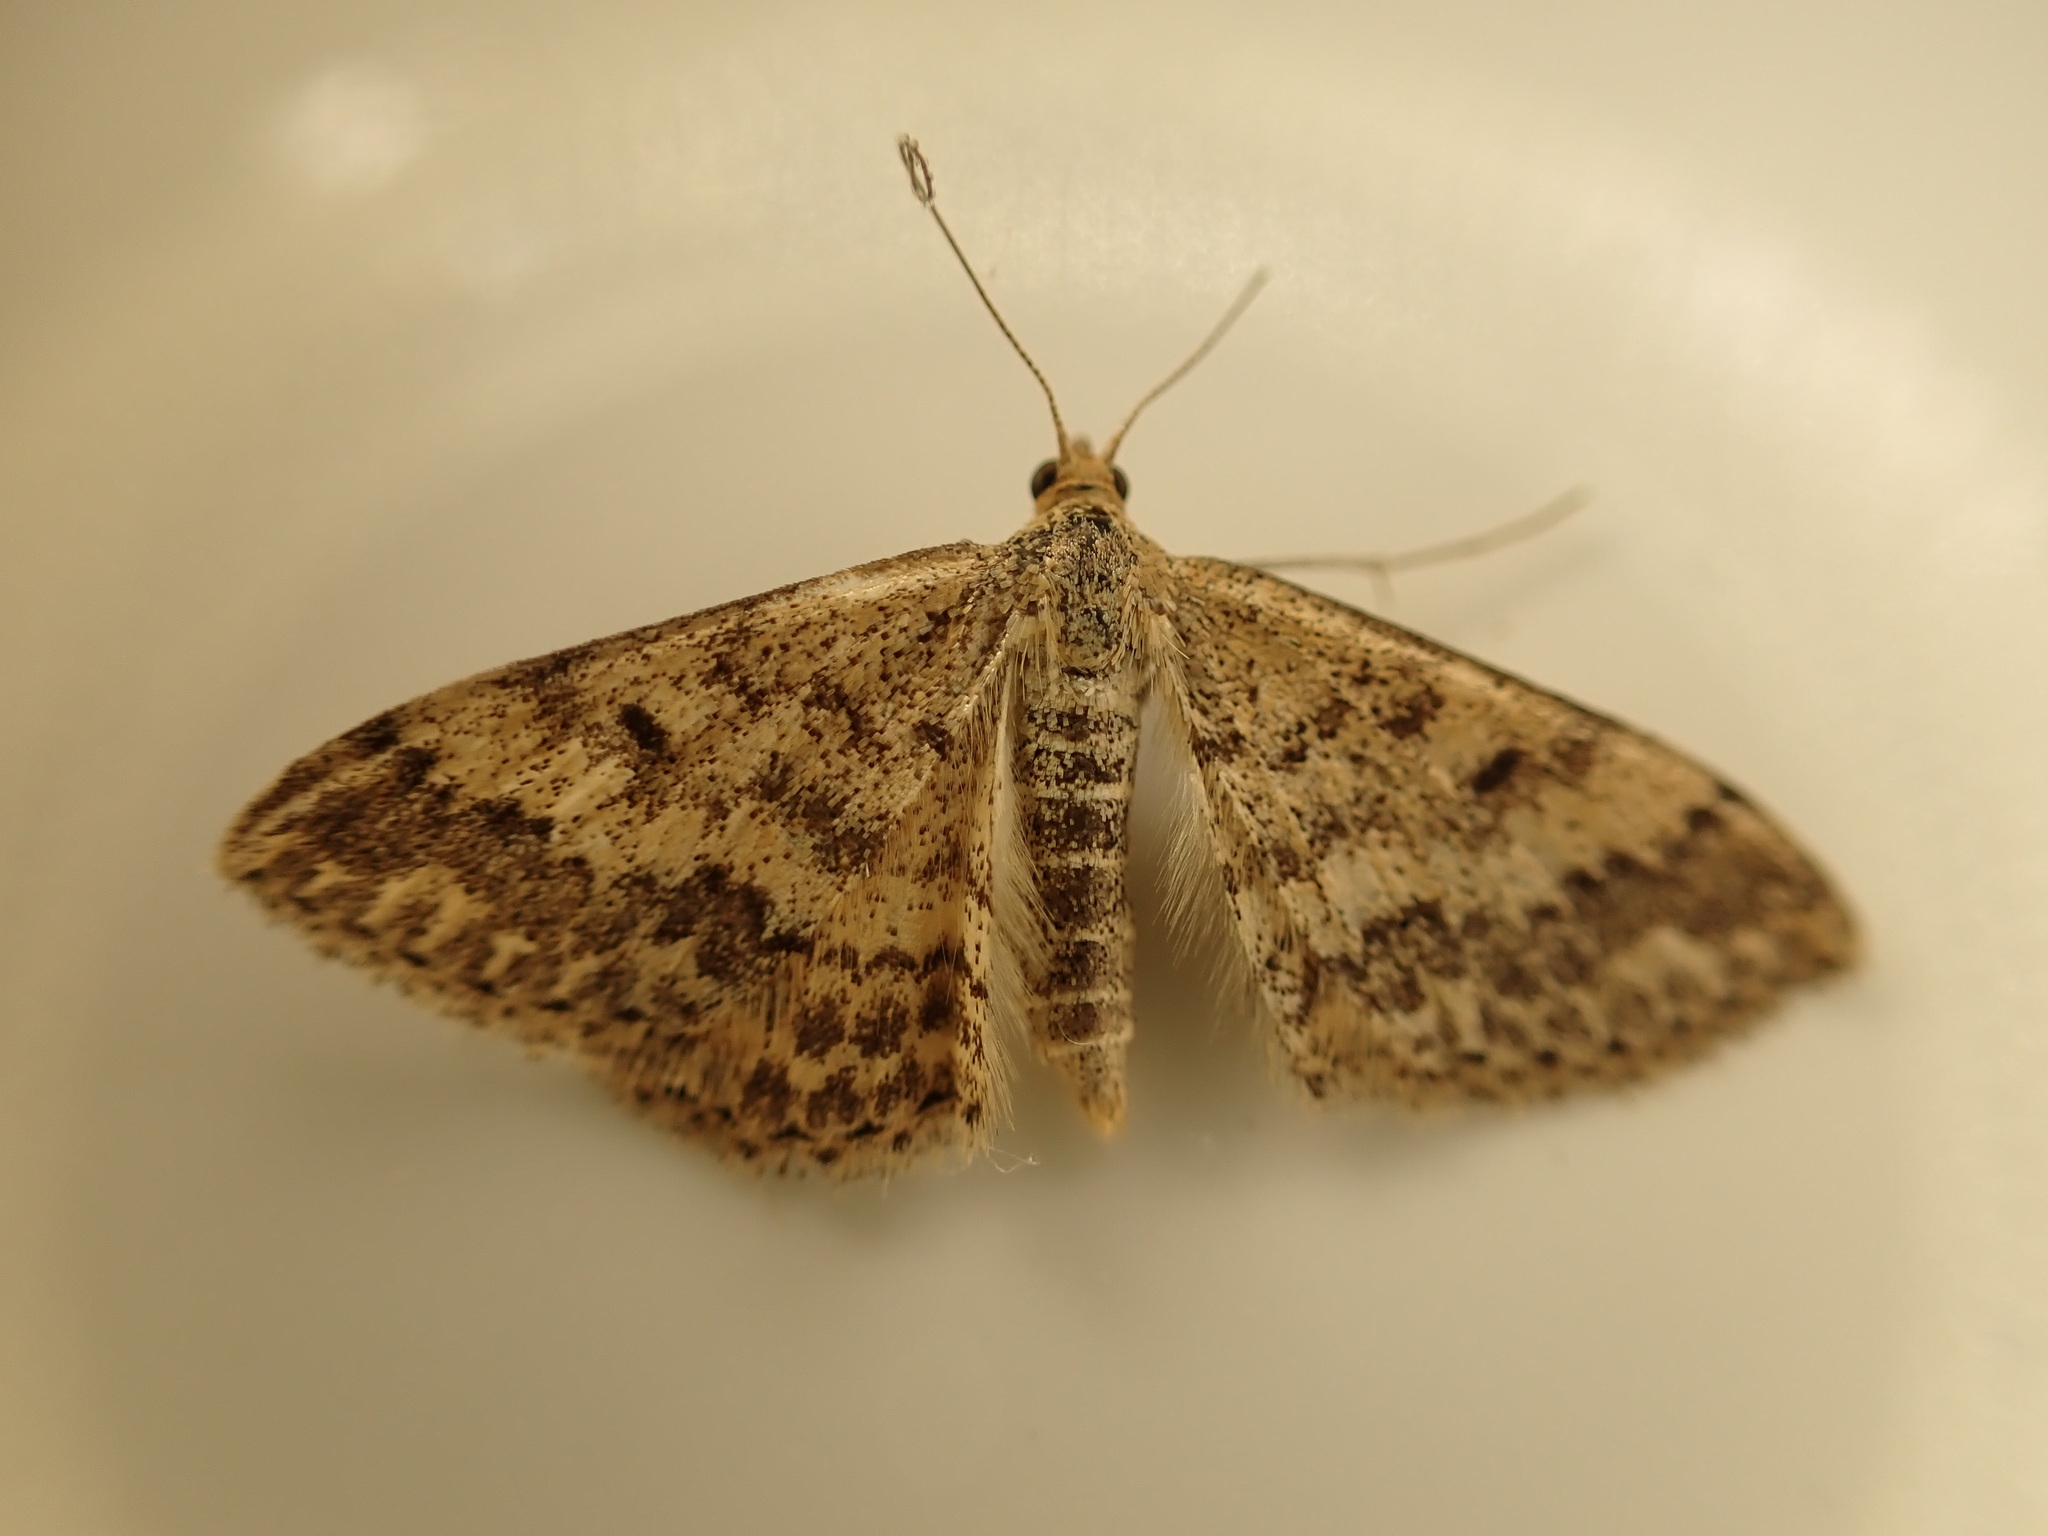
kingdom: Animalia
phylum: Arthropoda
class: Insecta
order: Lepidoptera
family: Geometridae
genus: Scopula
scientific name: Scopula rubraria
